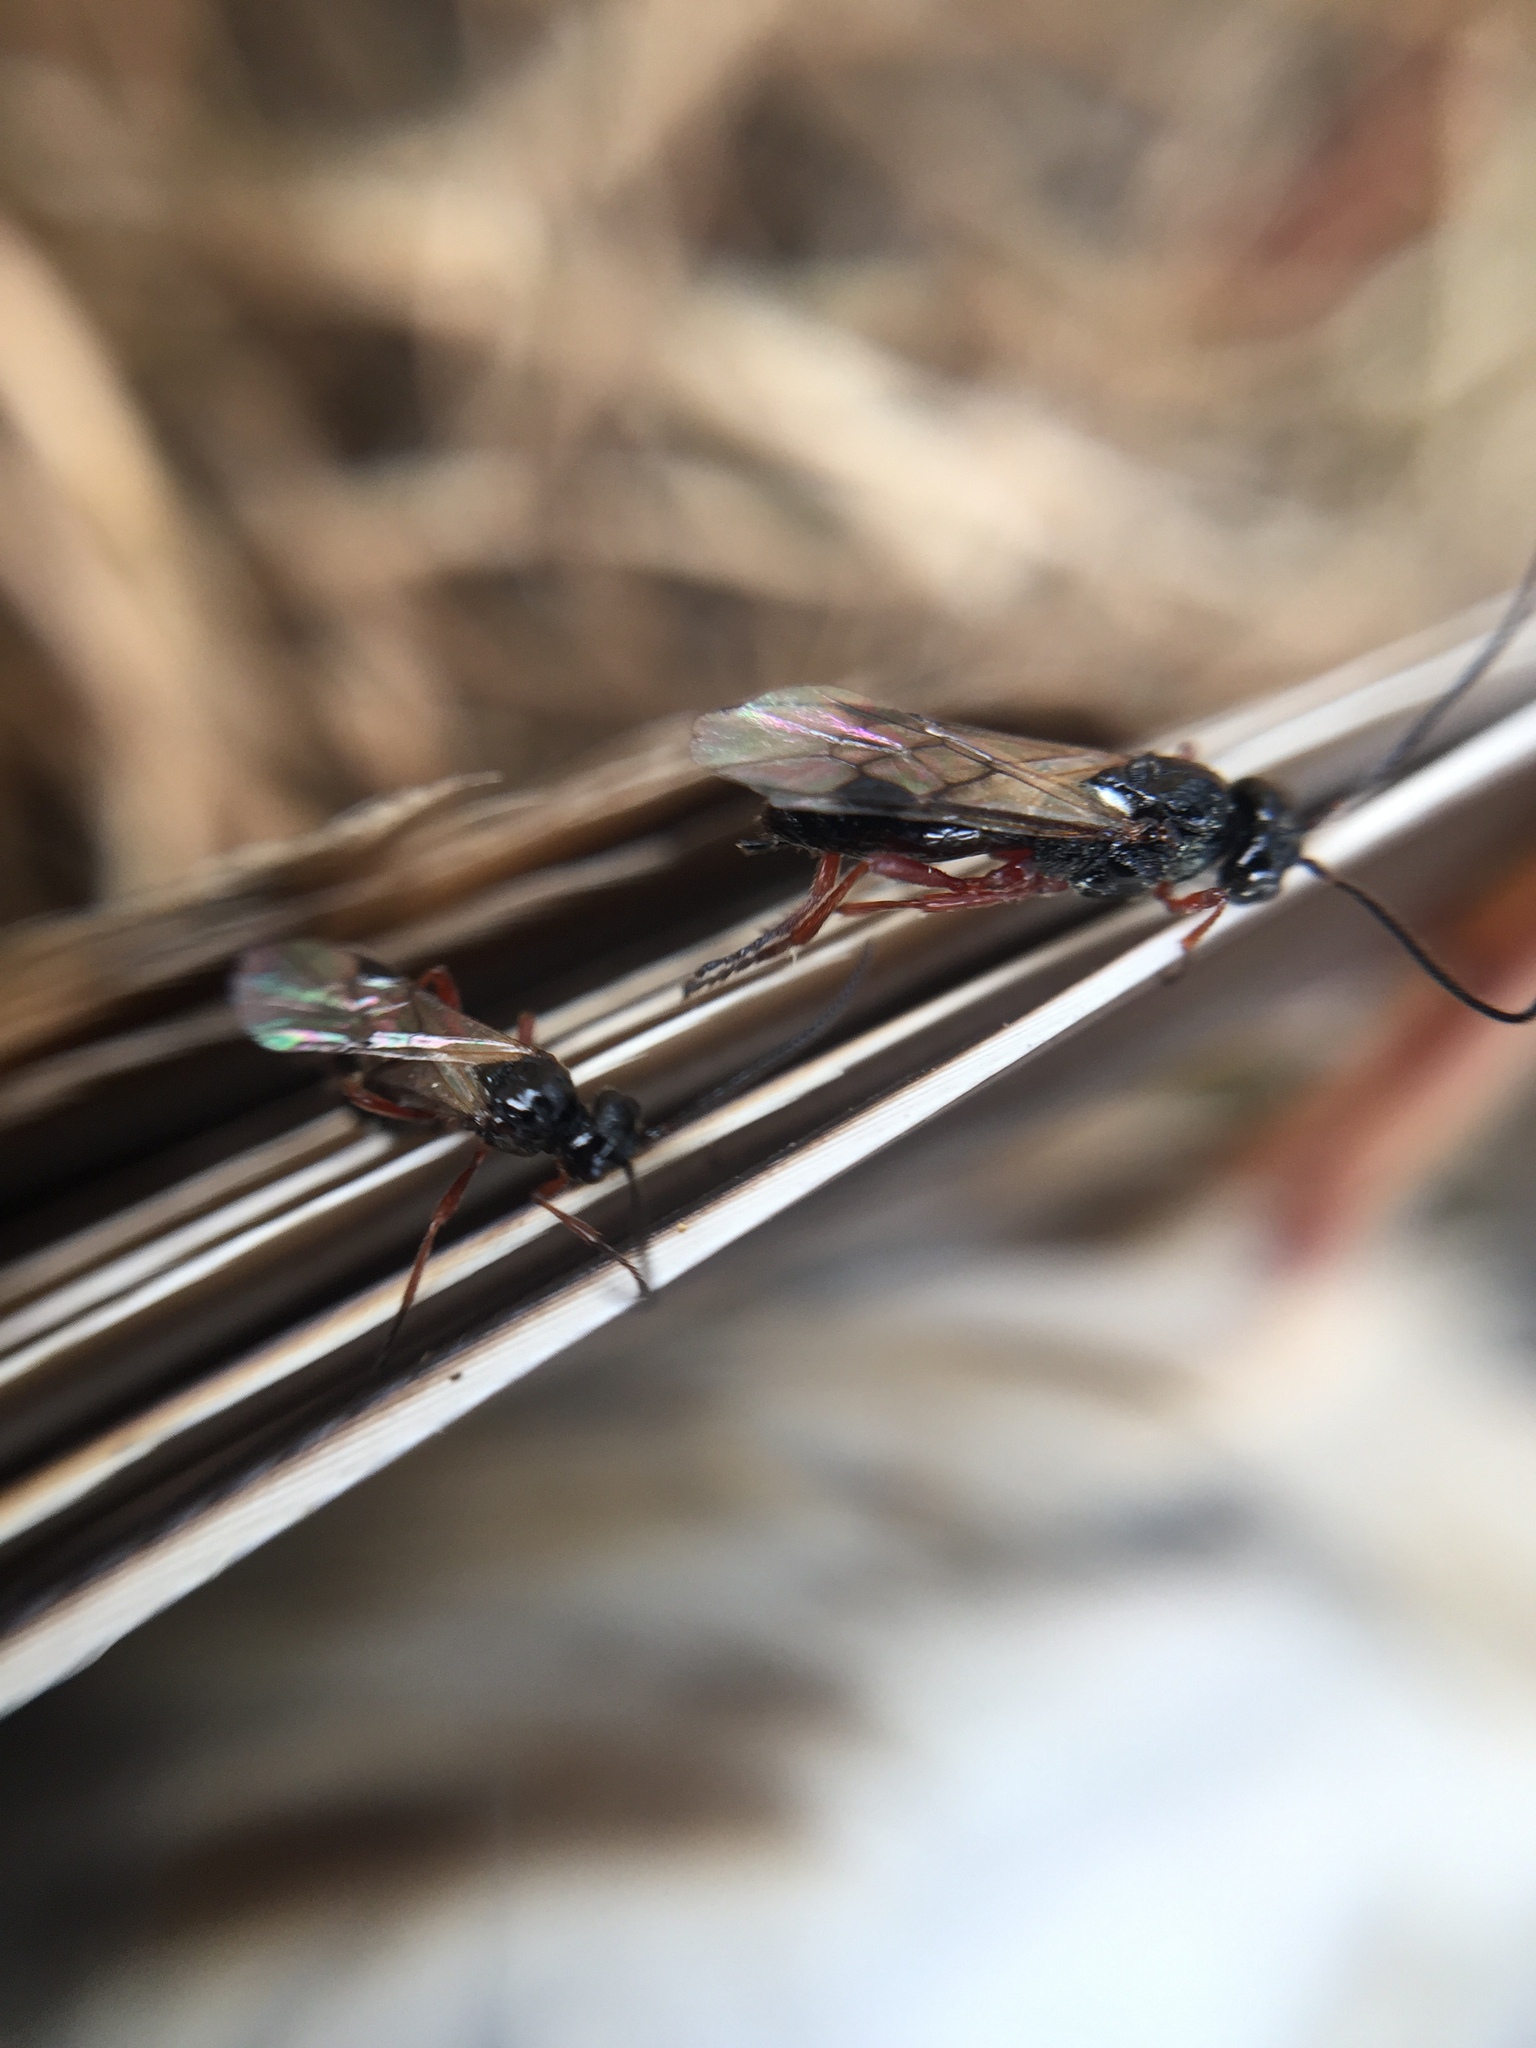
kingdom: Animalia
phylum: Arthropoda
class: Insecta
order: Hymenoptera
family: Braconidae
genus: Alysia
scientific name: Alysia manducator
